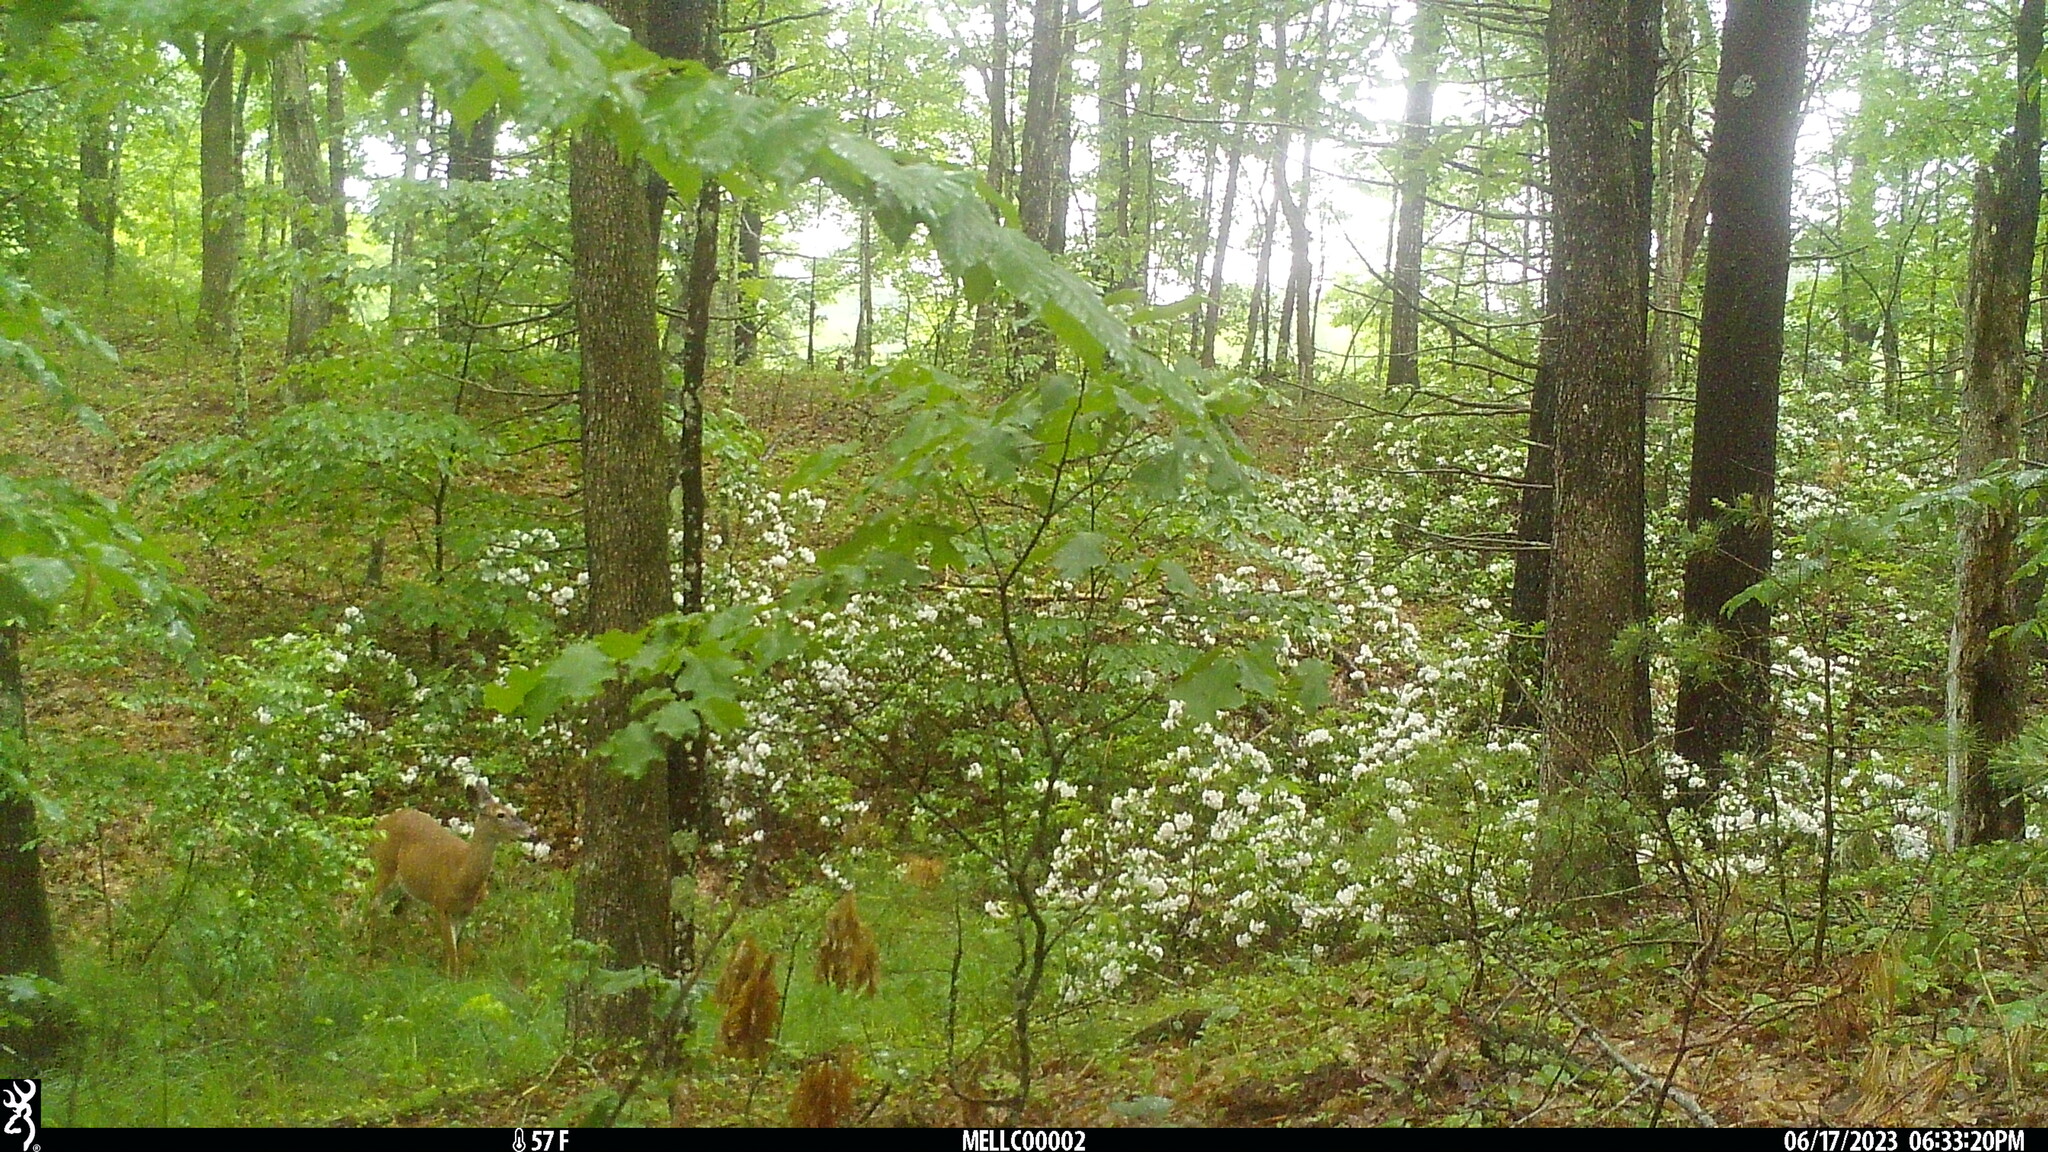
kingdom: Animalia
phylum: Chordata
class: Mammalia
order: Artiodactyla
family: Cervidae
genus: Odocoileus
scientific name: Odocoileus virginianus
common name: White-tailed deer
